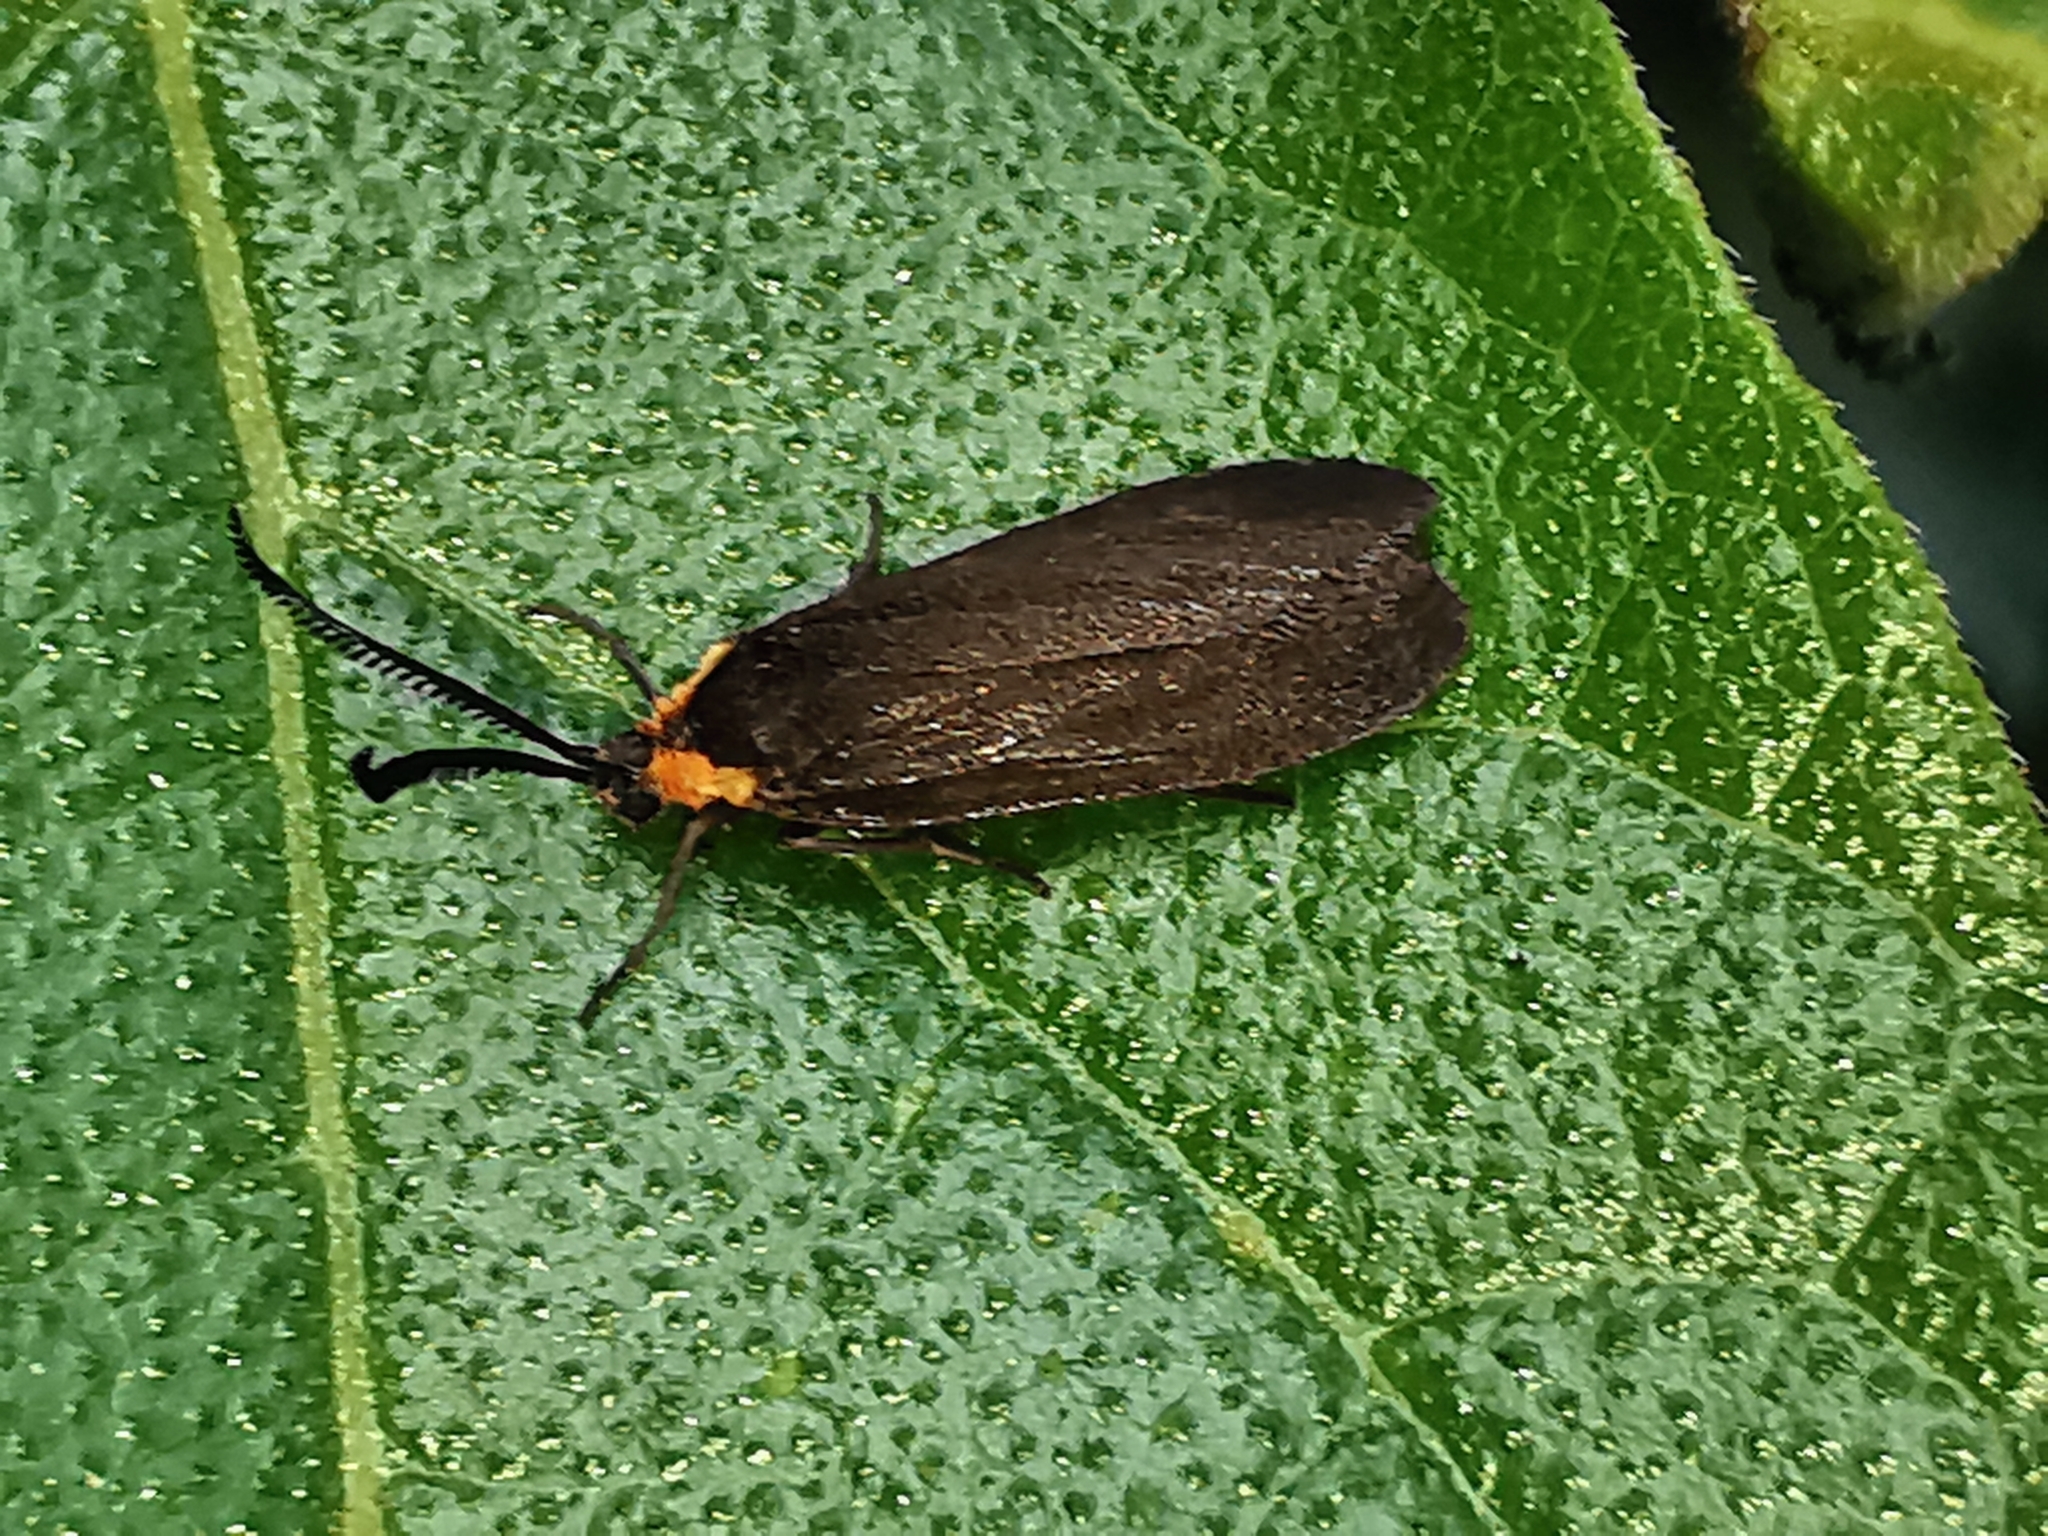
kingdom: Animalia
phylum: Arthropoda
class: Insecta
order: Lepidoptera
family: Zygaenidae
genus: Acoloithus
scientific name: Acoloithus falsarius
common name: Clemens' false skeletonizer
